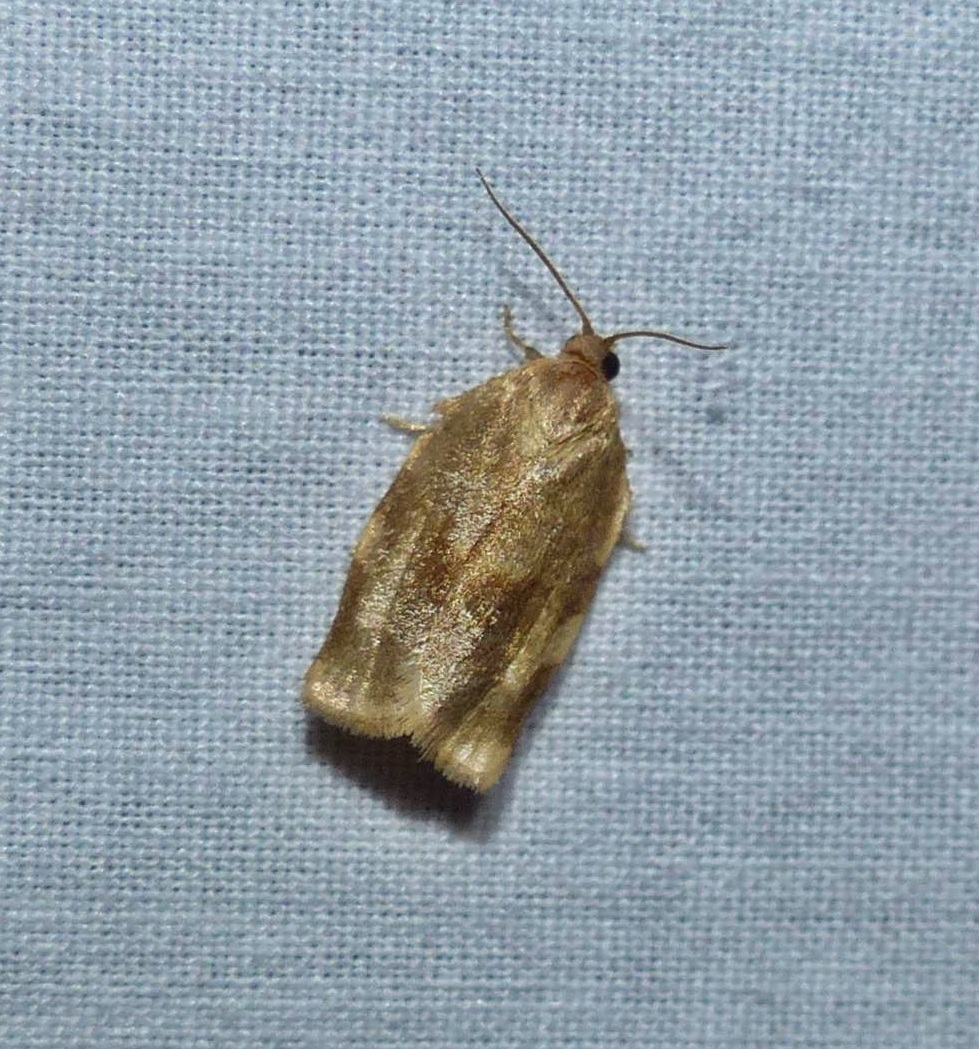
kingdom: Animalia
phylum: Arthropoda
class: Insecta
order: Lepidoptera
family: Tortricidae
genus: Choristoneura
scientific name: Choristoneura fractivittana
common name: Broken-banded leafroller moth
